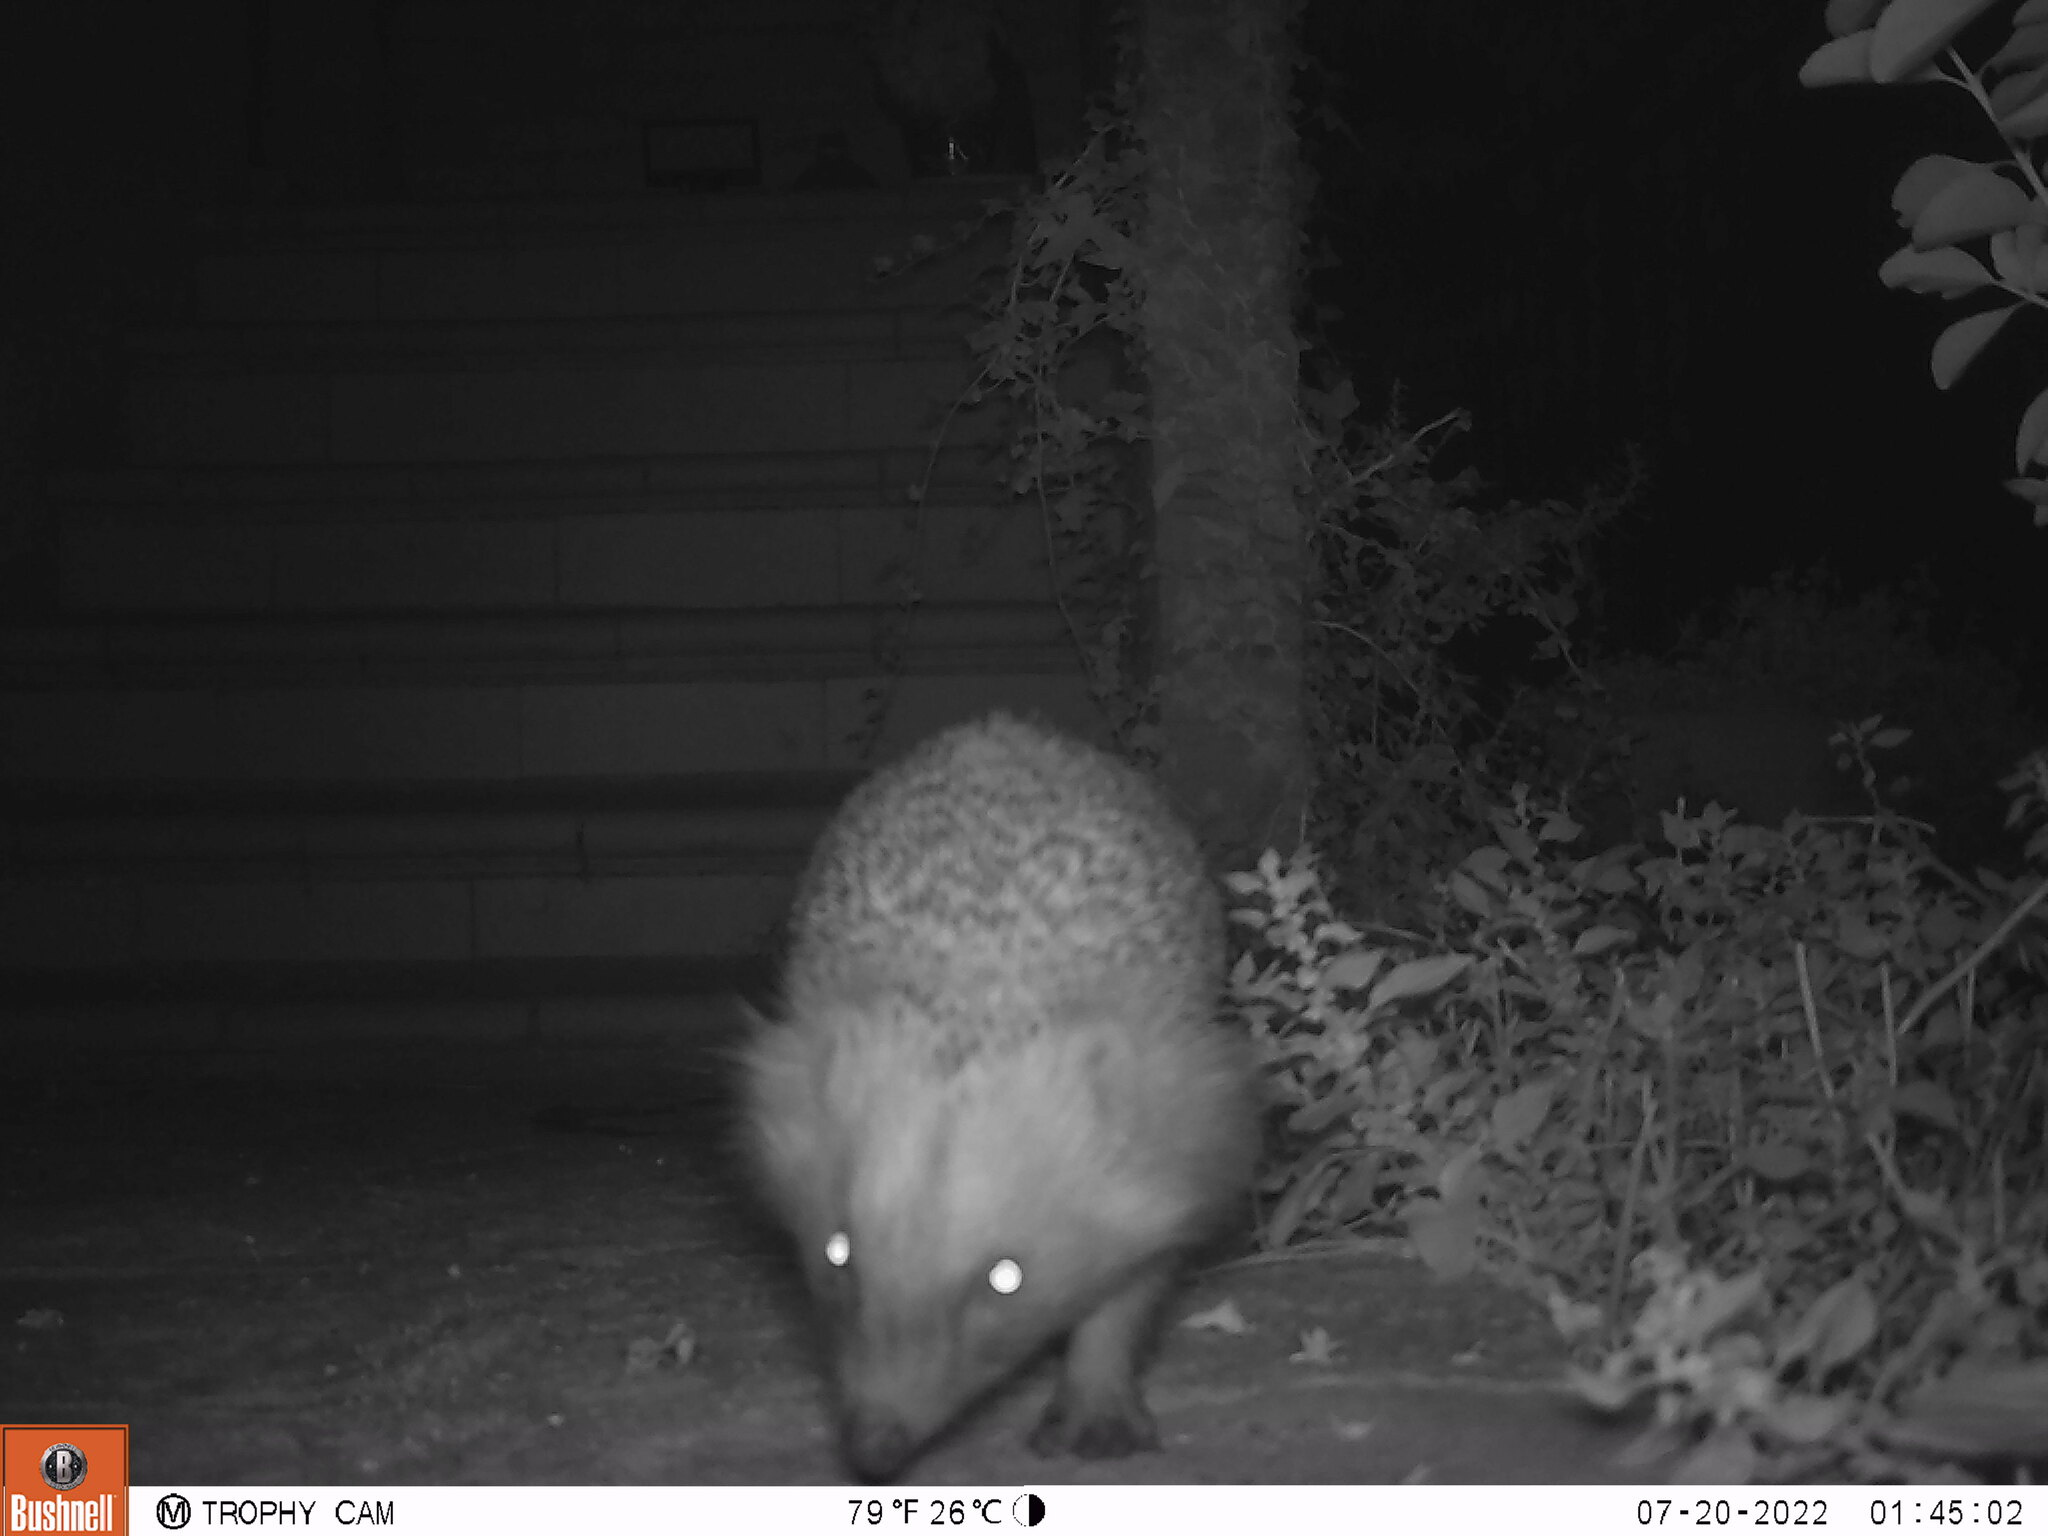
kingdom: Animalia
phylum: Chordata
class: Mammalia
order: Erinaceomorpha
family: Erinaceidae
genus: Erinaceus
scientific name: Erinaceus europaeus
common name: West european hedgehog
